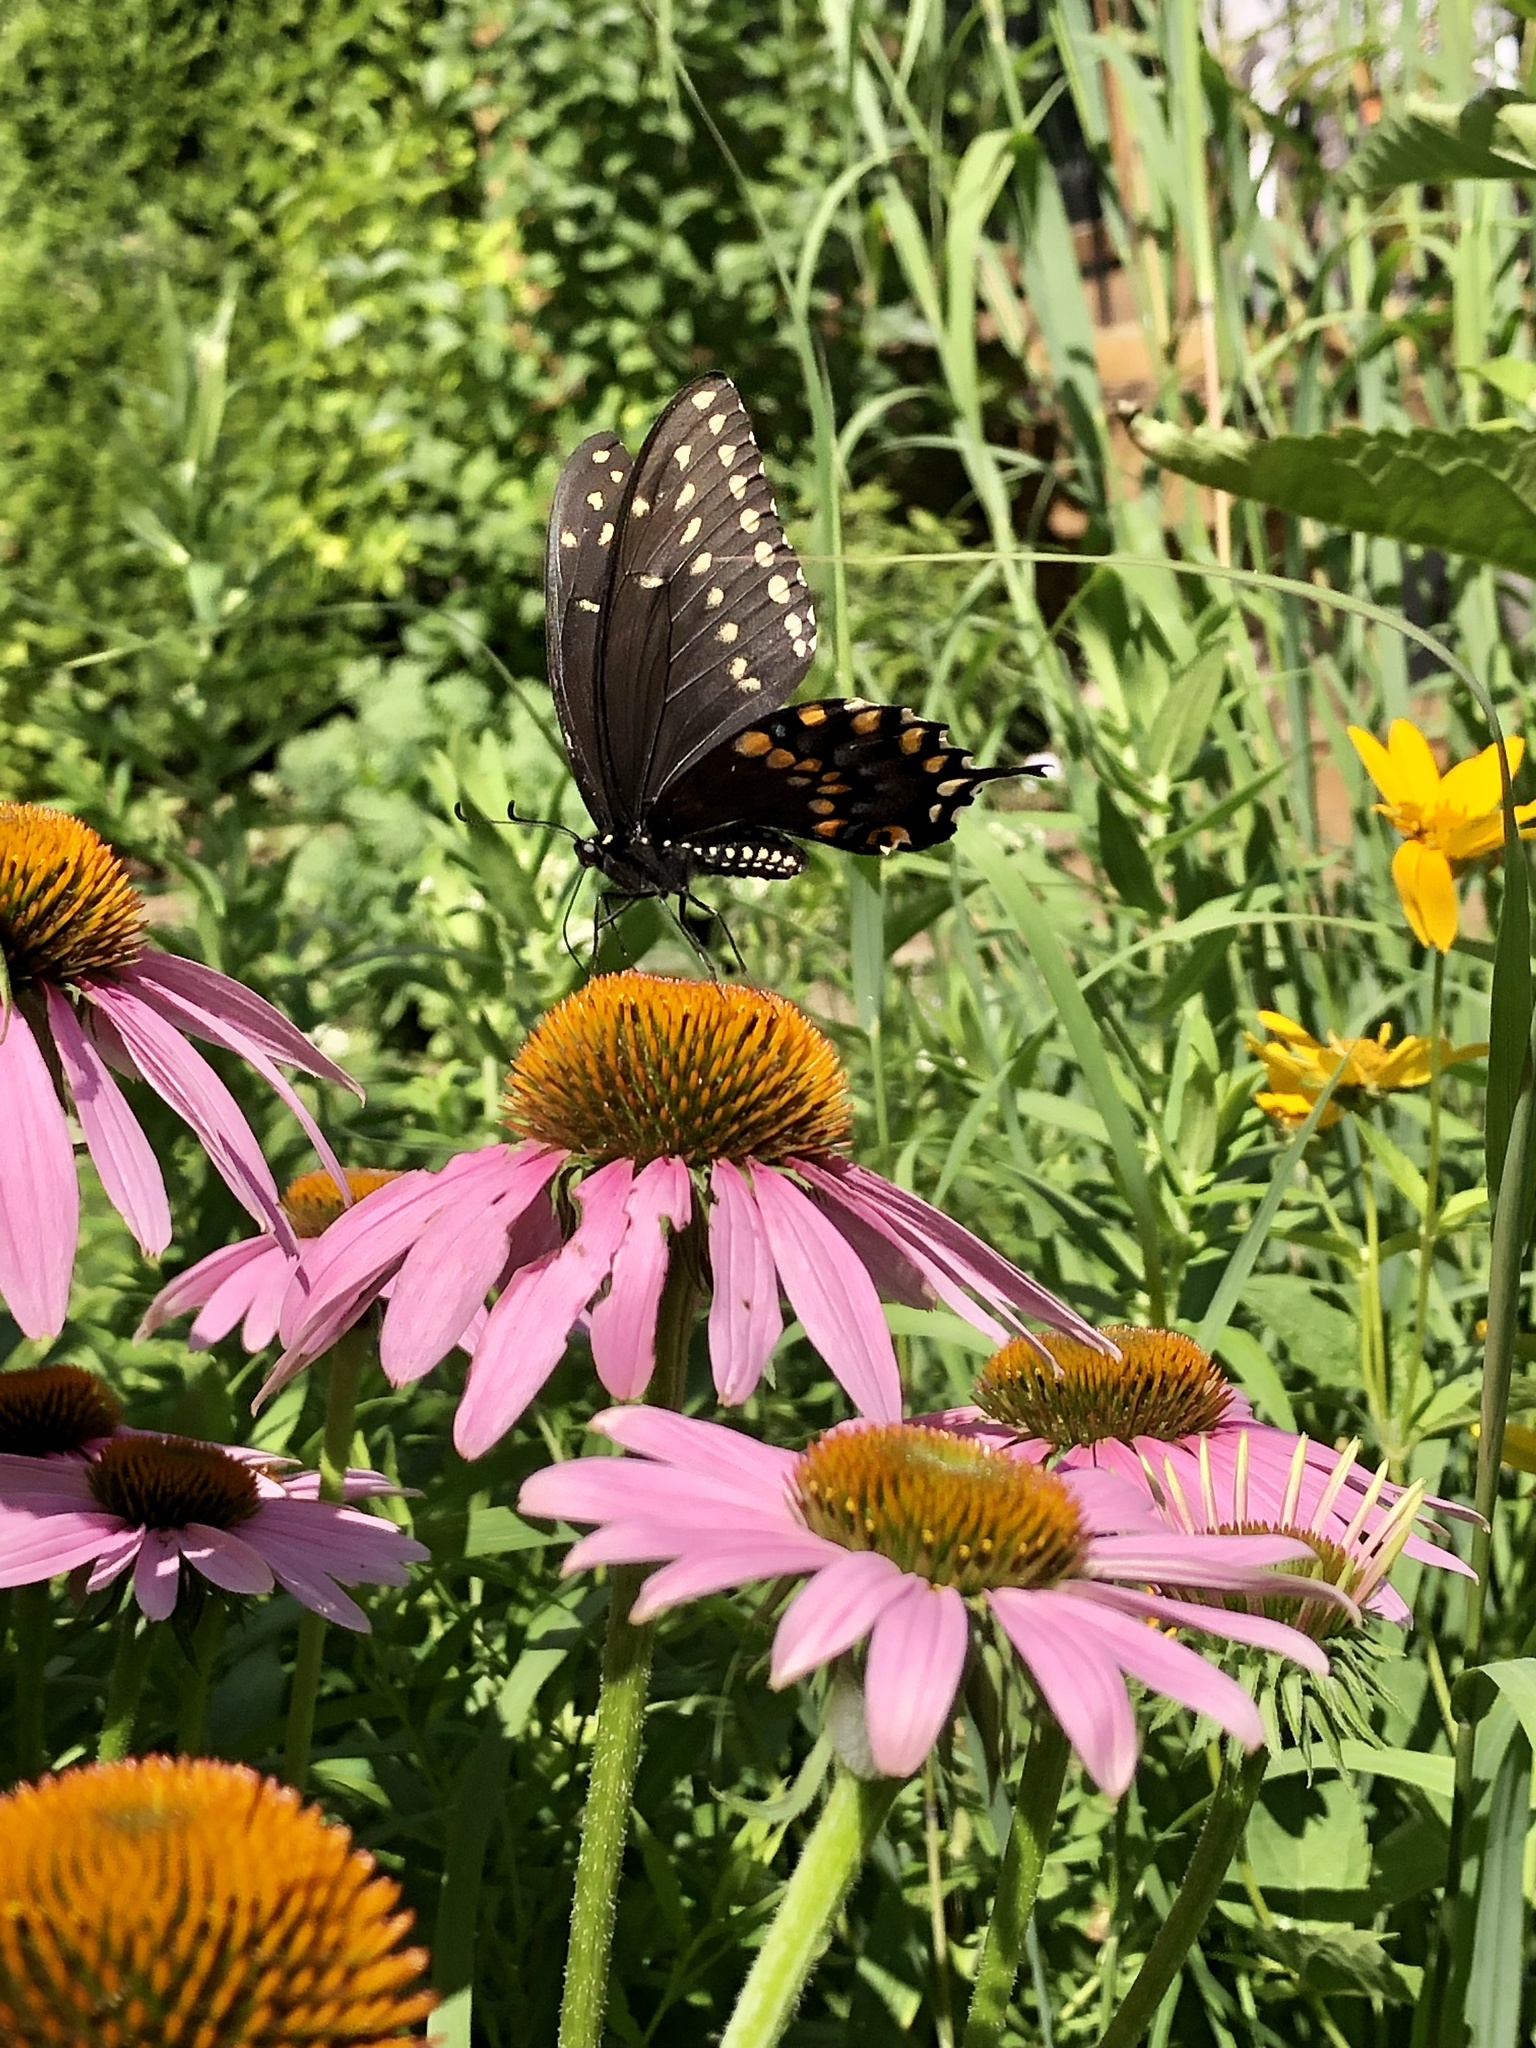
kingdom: Animalia
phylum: Arthropoda
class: Insecta
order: Lepidoptera
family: Papilionidae
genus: Papilio
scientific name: Papilio polyxenes
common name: Black swallowtail
